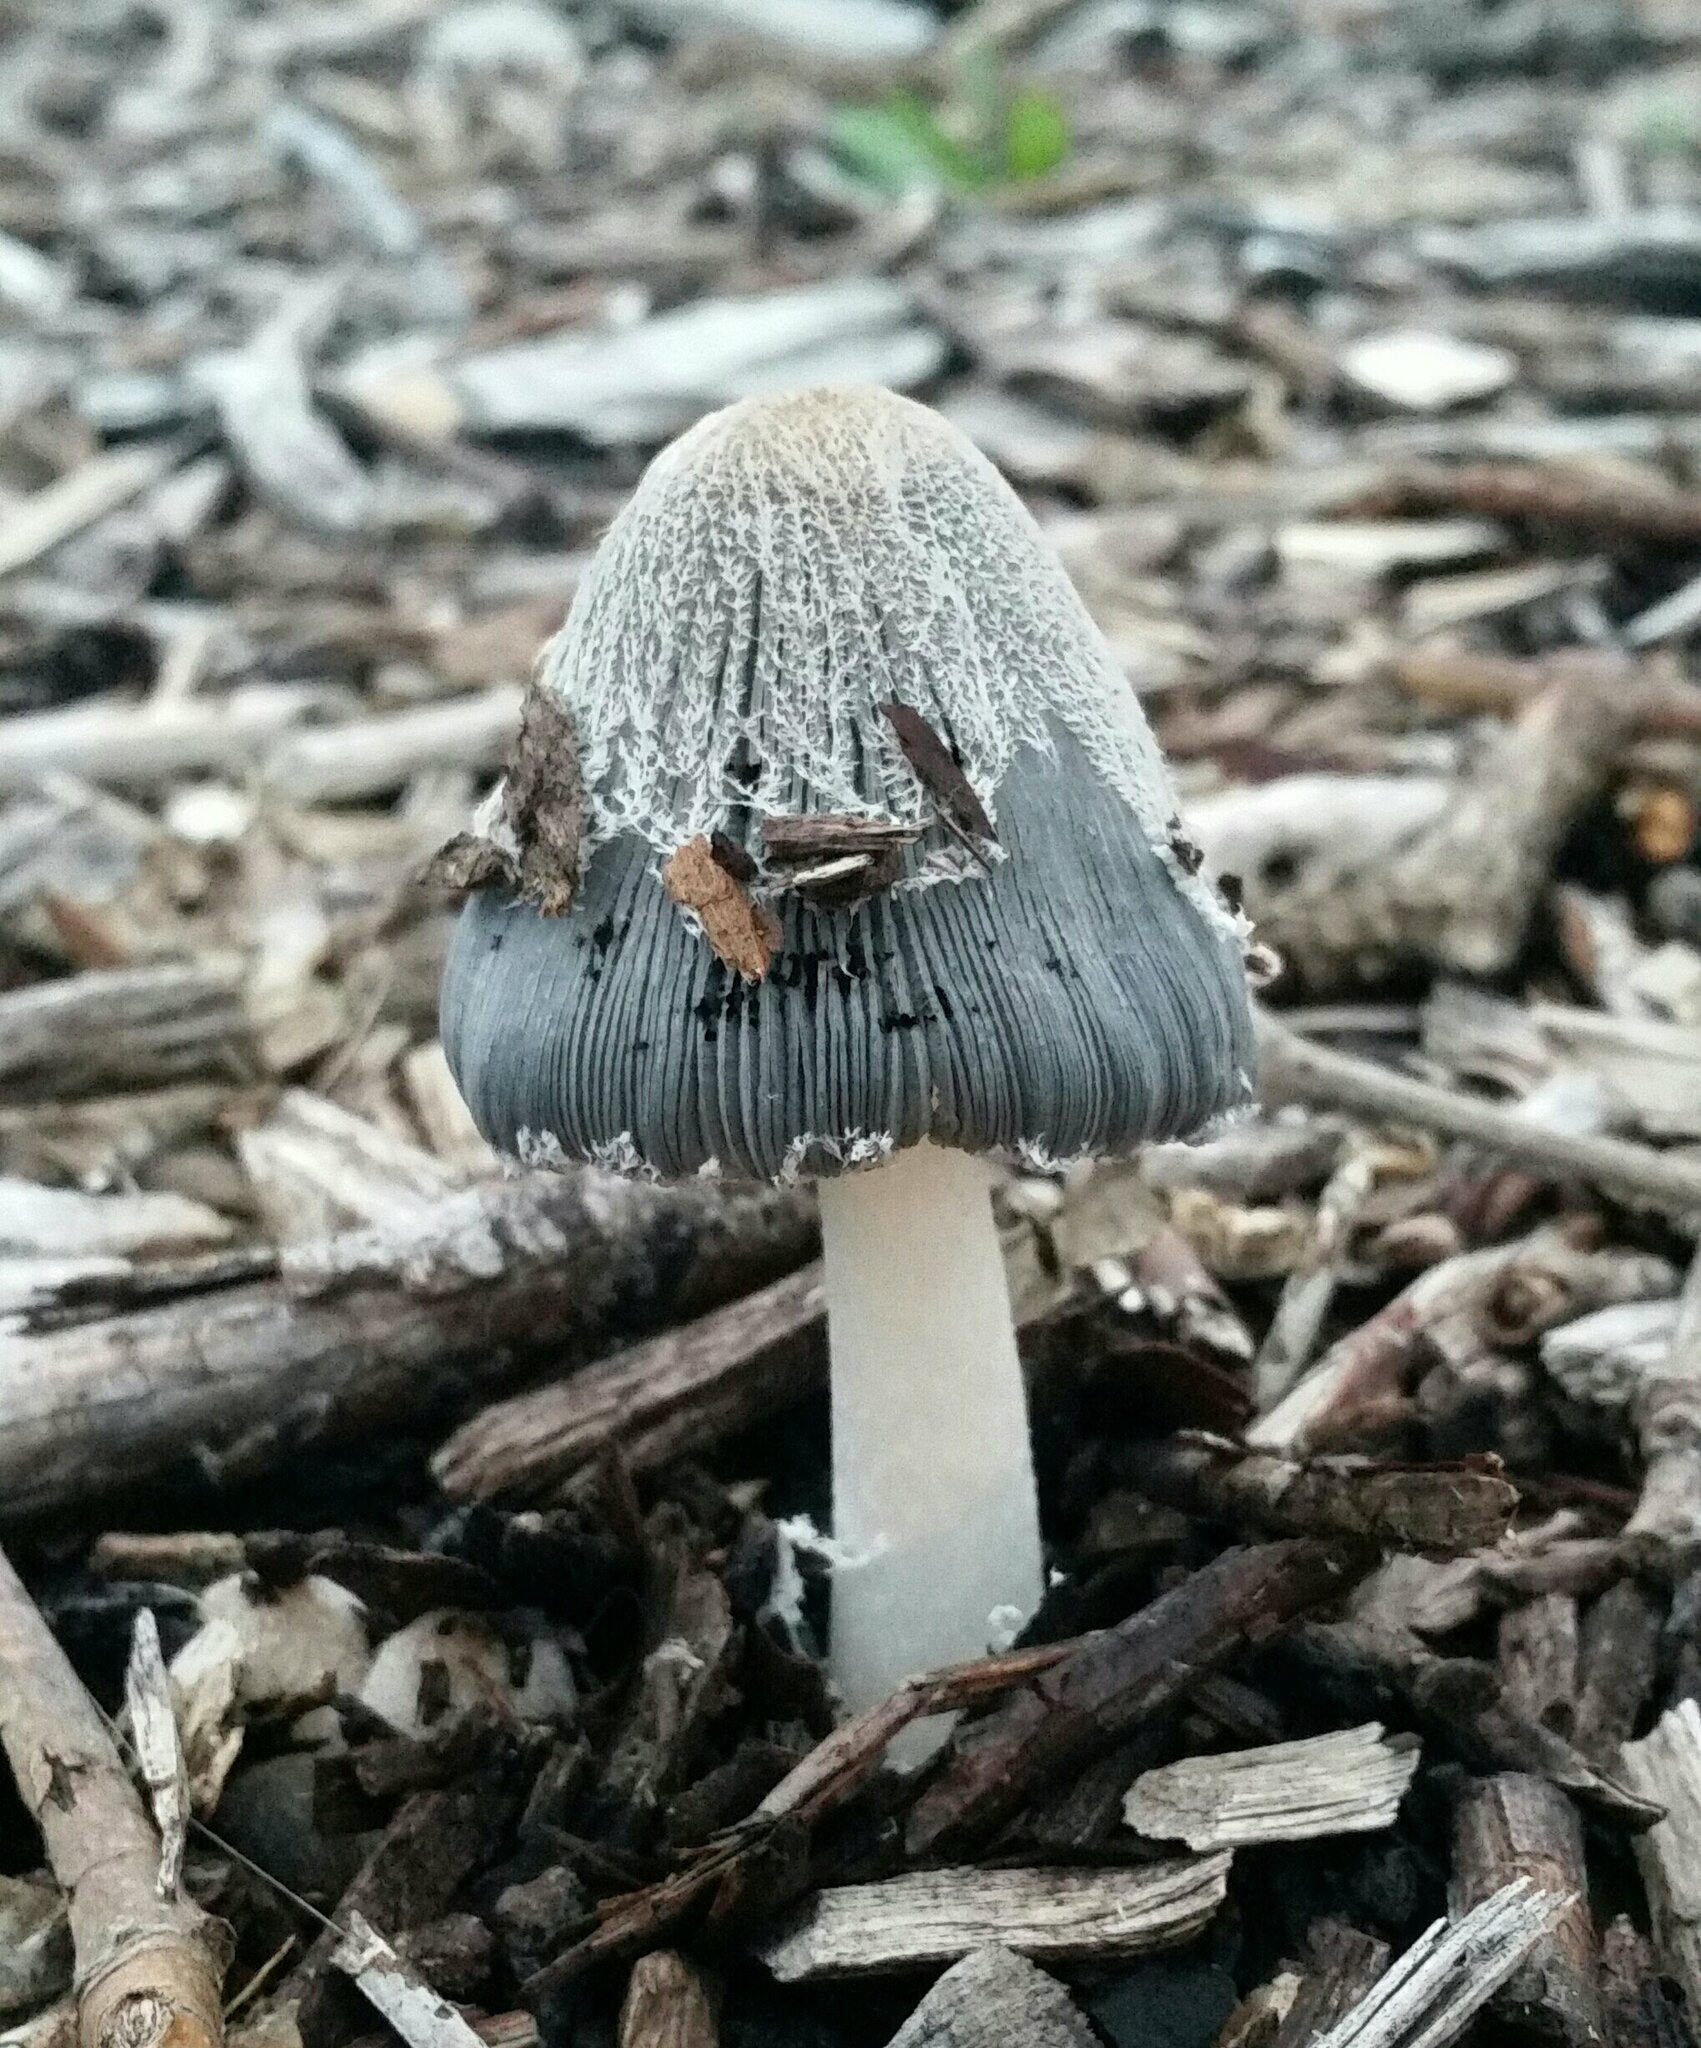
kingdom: Fungi
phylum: Basidiomycota
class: Agaricomycetes
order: Agaricales
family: Psathyrellaceae
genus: Coprinopsis
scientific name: Coprinopsis lagopus
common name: Hare'sfoot inkcap
